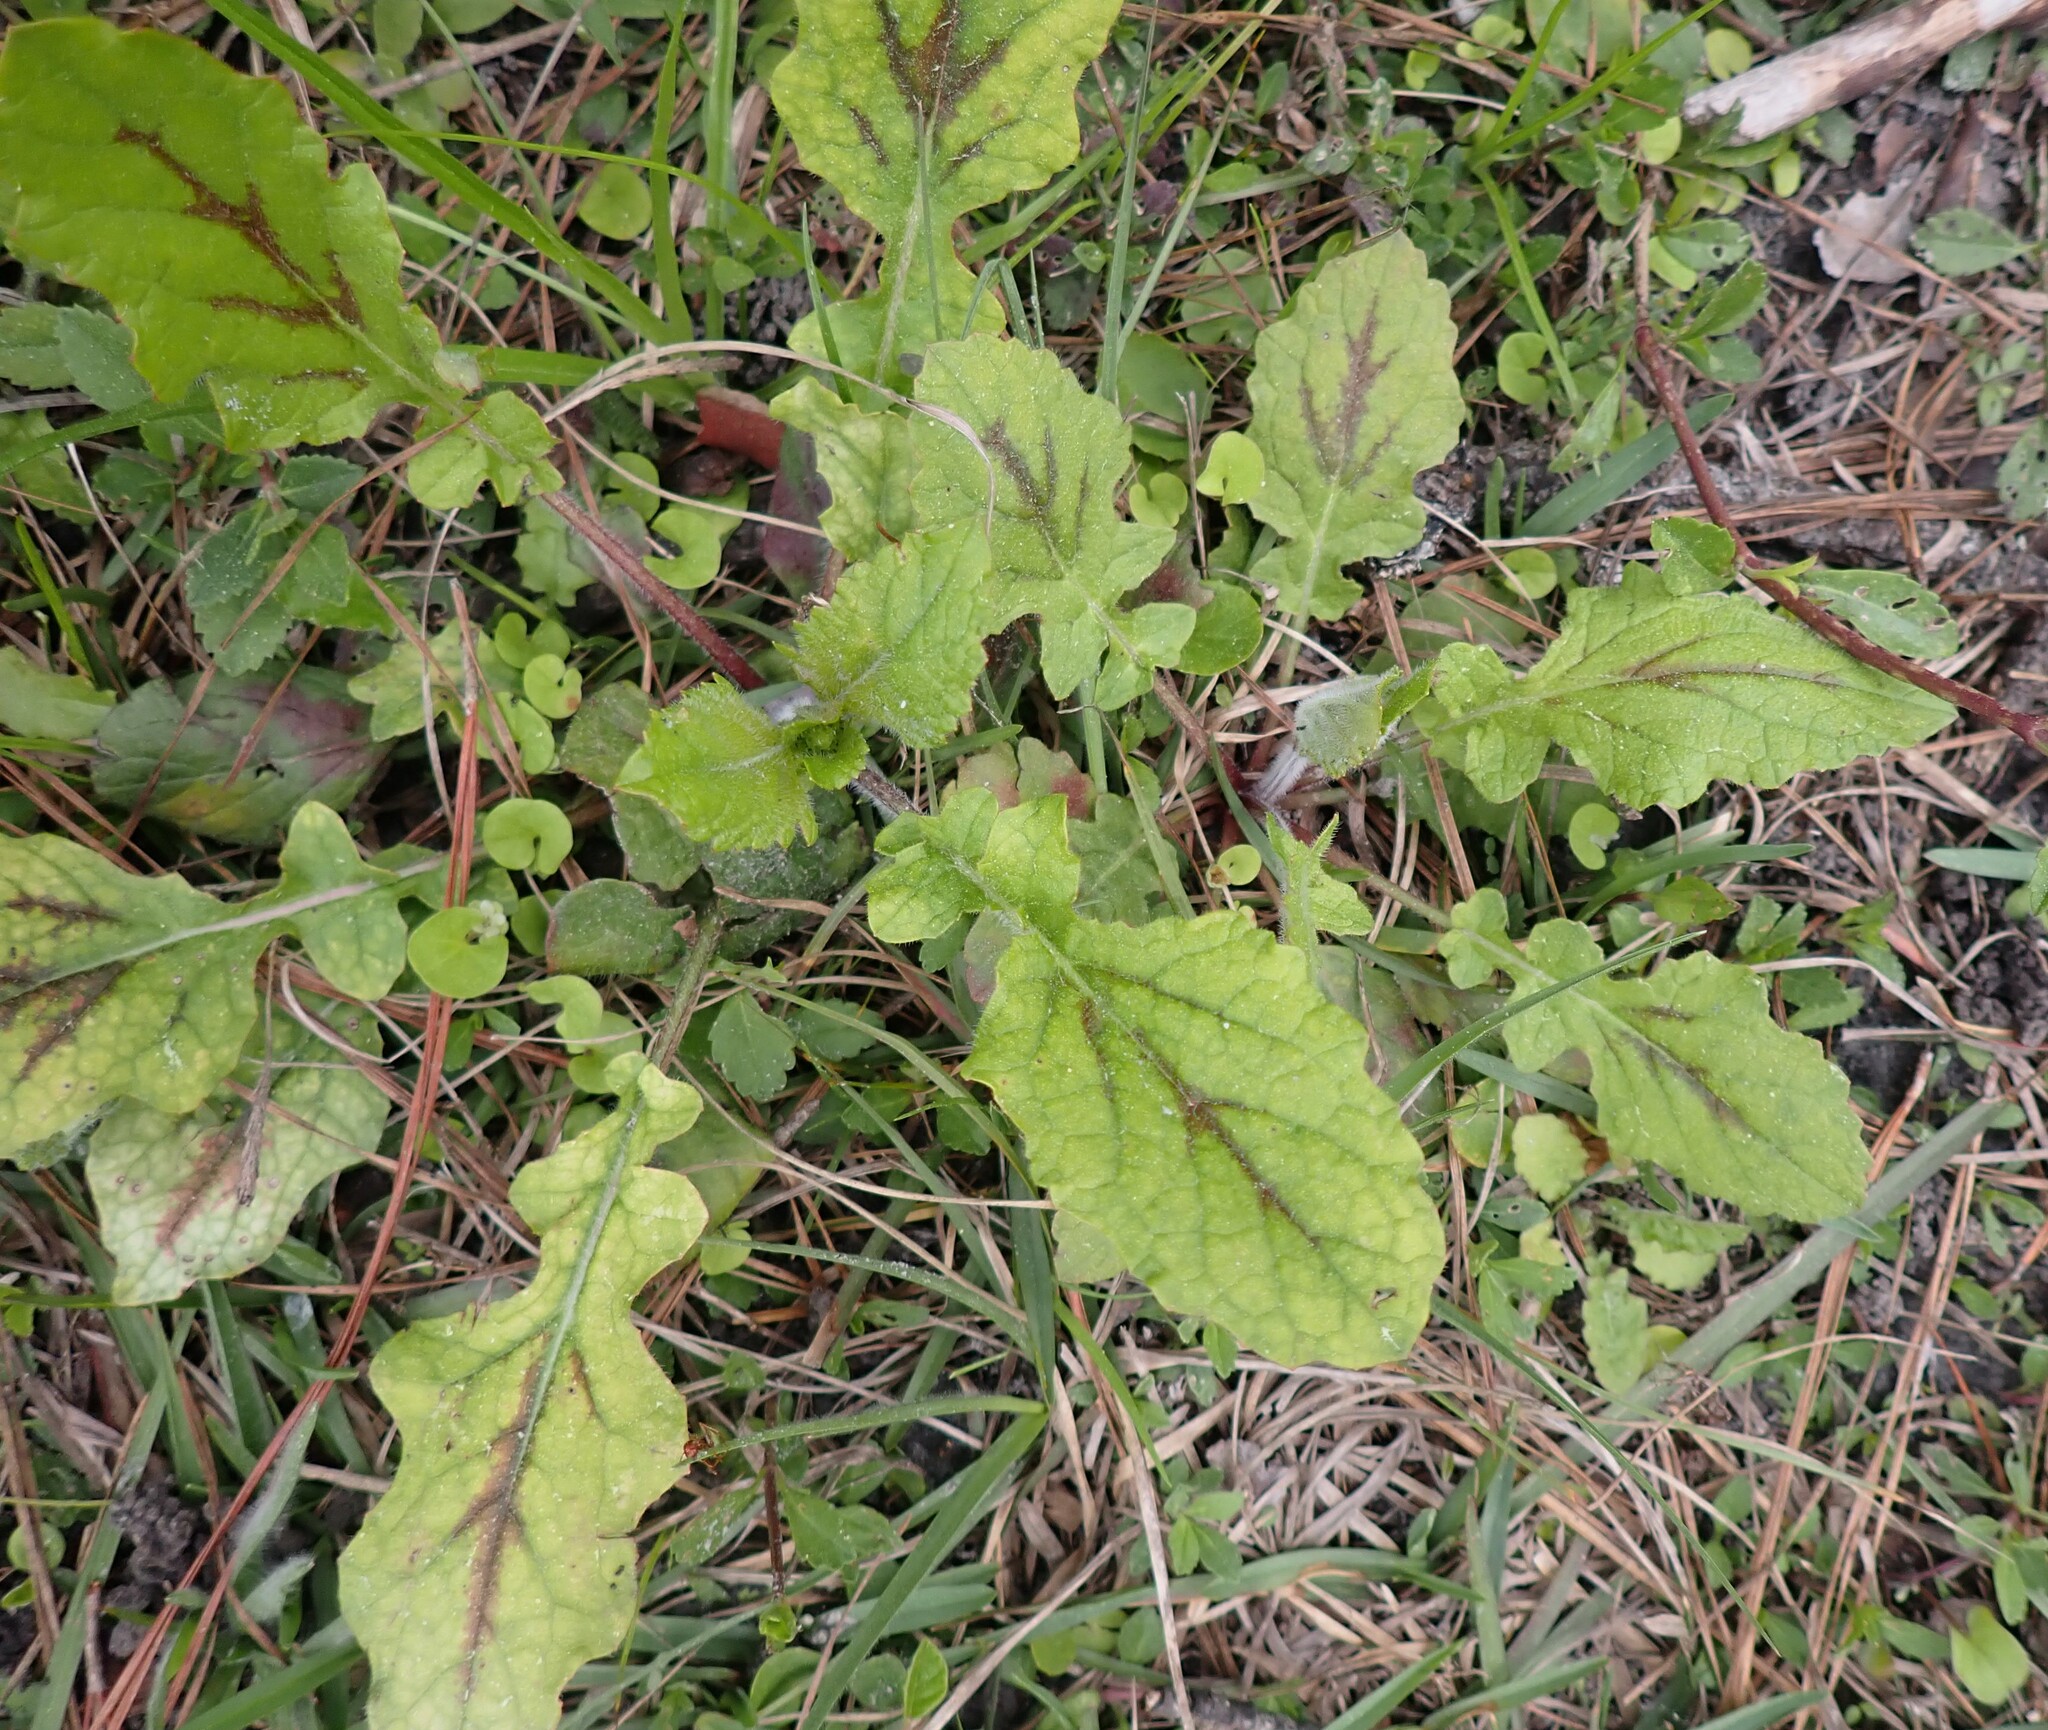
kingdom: Plantae
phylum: Tracheophyta
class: Magnoliopsida
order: Lamiales
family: Lamiaceae
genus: Salvia
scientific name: Salvia lyrata
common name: Cancerweed
